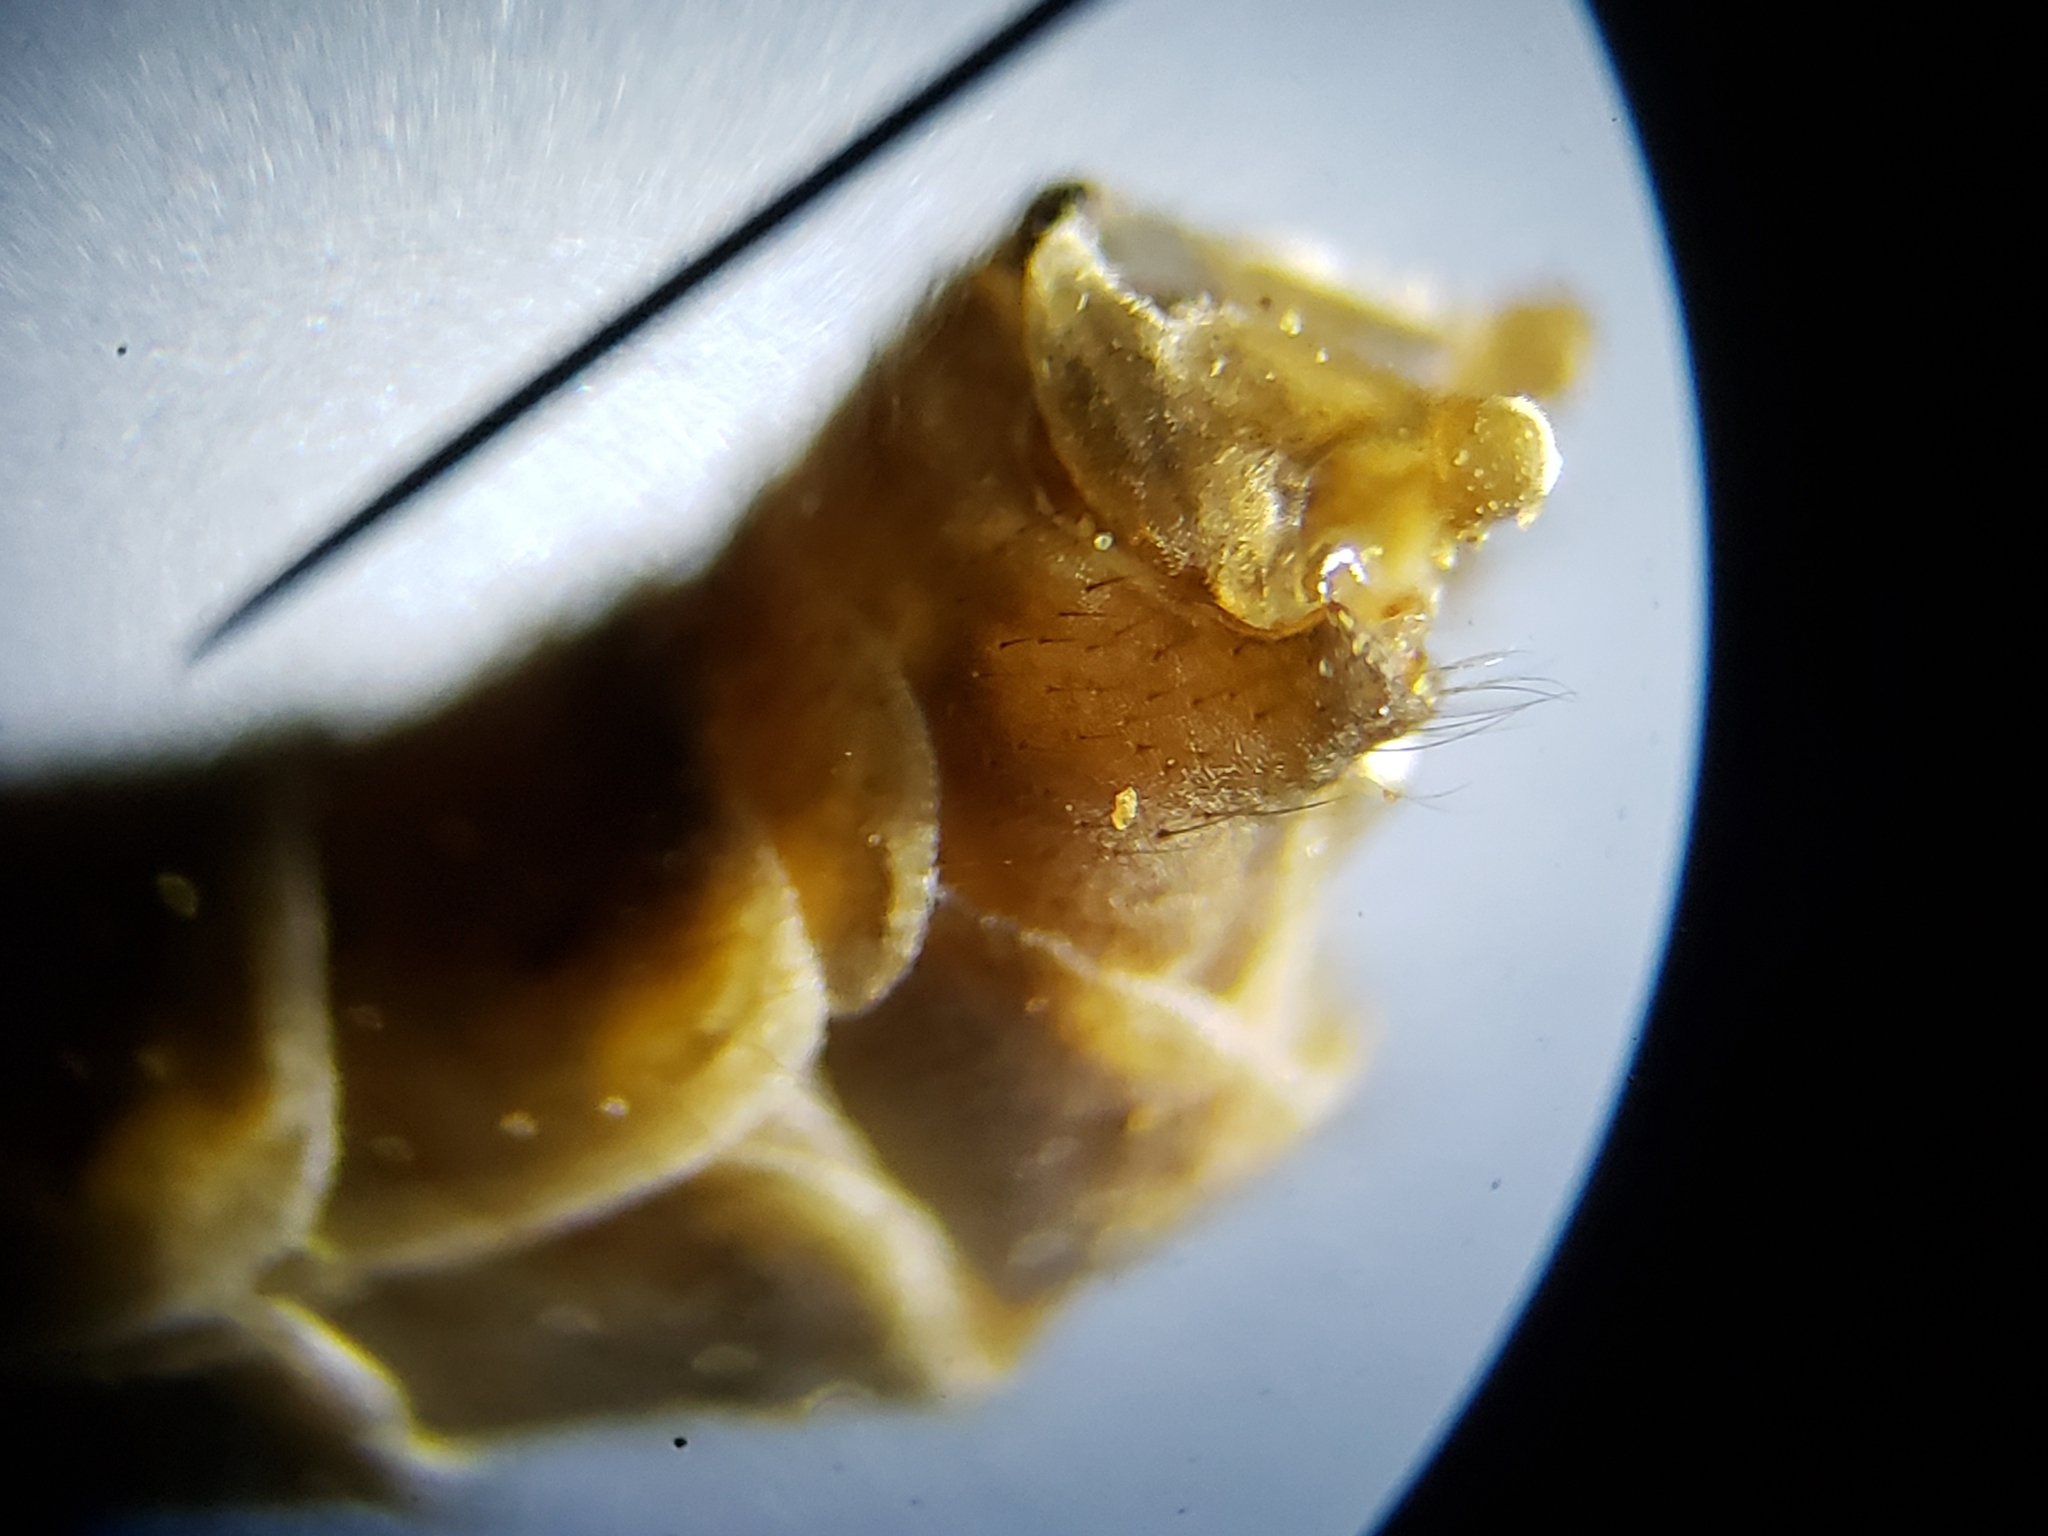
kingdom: Animalia
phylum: Arthropoda
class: Insecta
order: Diptera
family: Tipulidae
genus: Tipula
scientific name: Tipula furca
